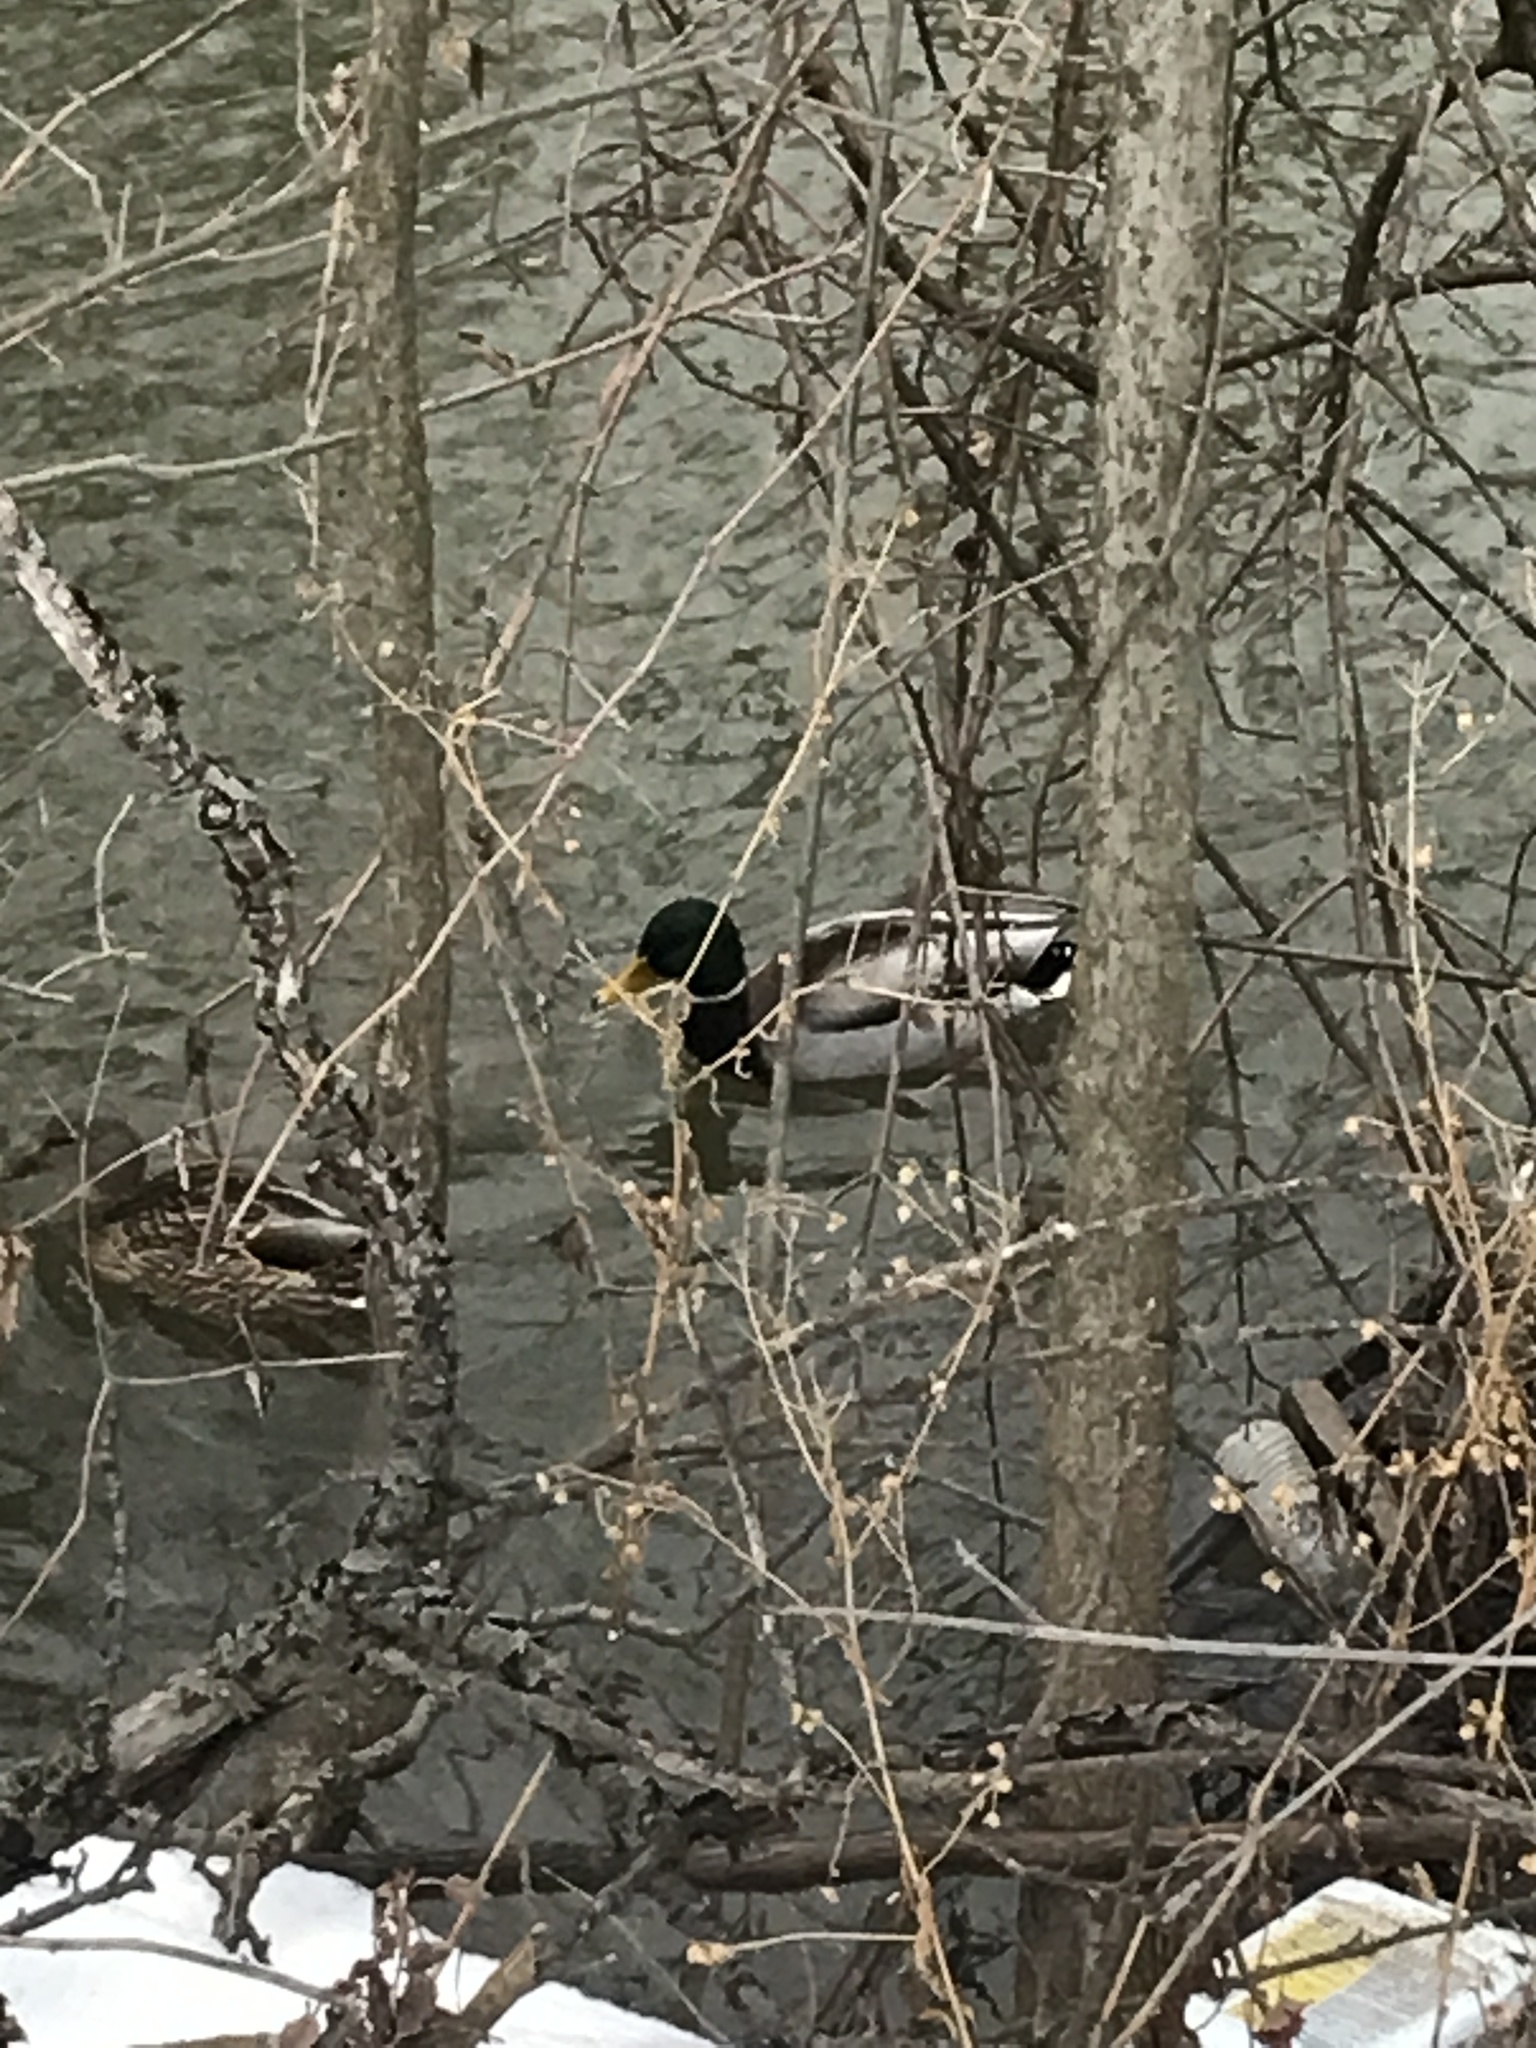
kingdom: Animalia
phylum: Chordata
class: Aves
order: Anseriformes
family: Anatidae
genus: Anas
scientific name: Anas platyrhynchos
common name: Mallard
